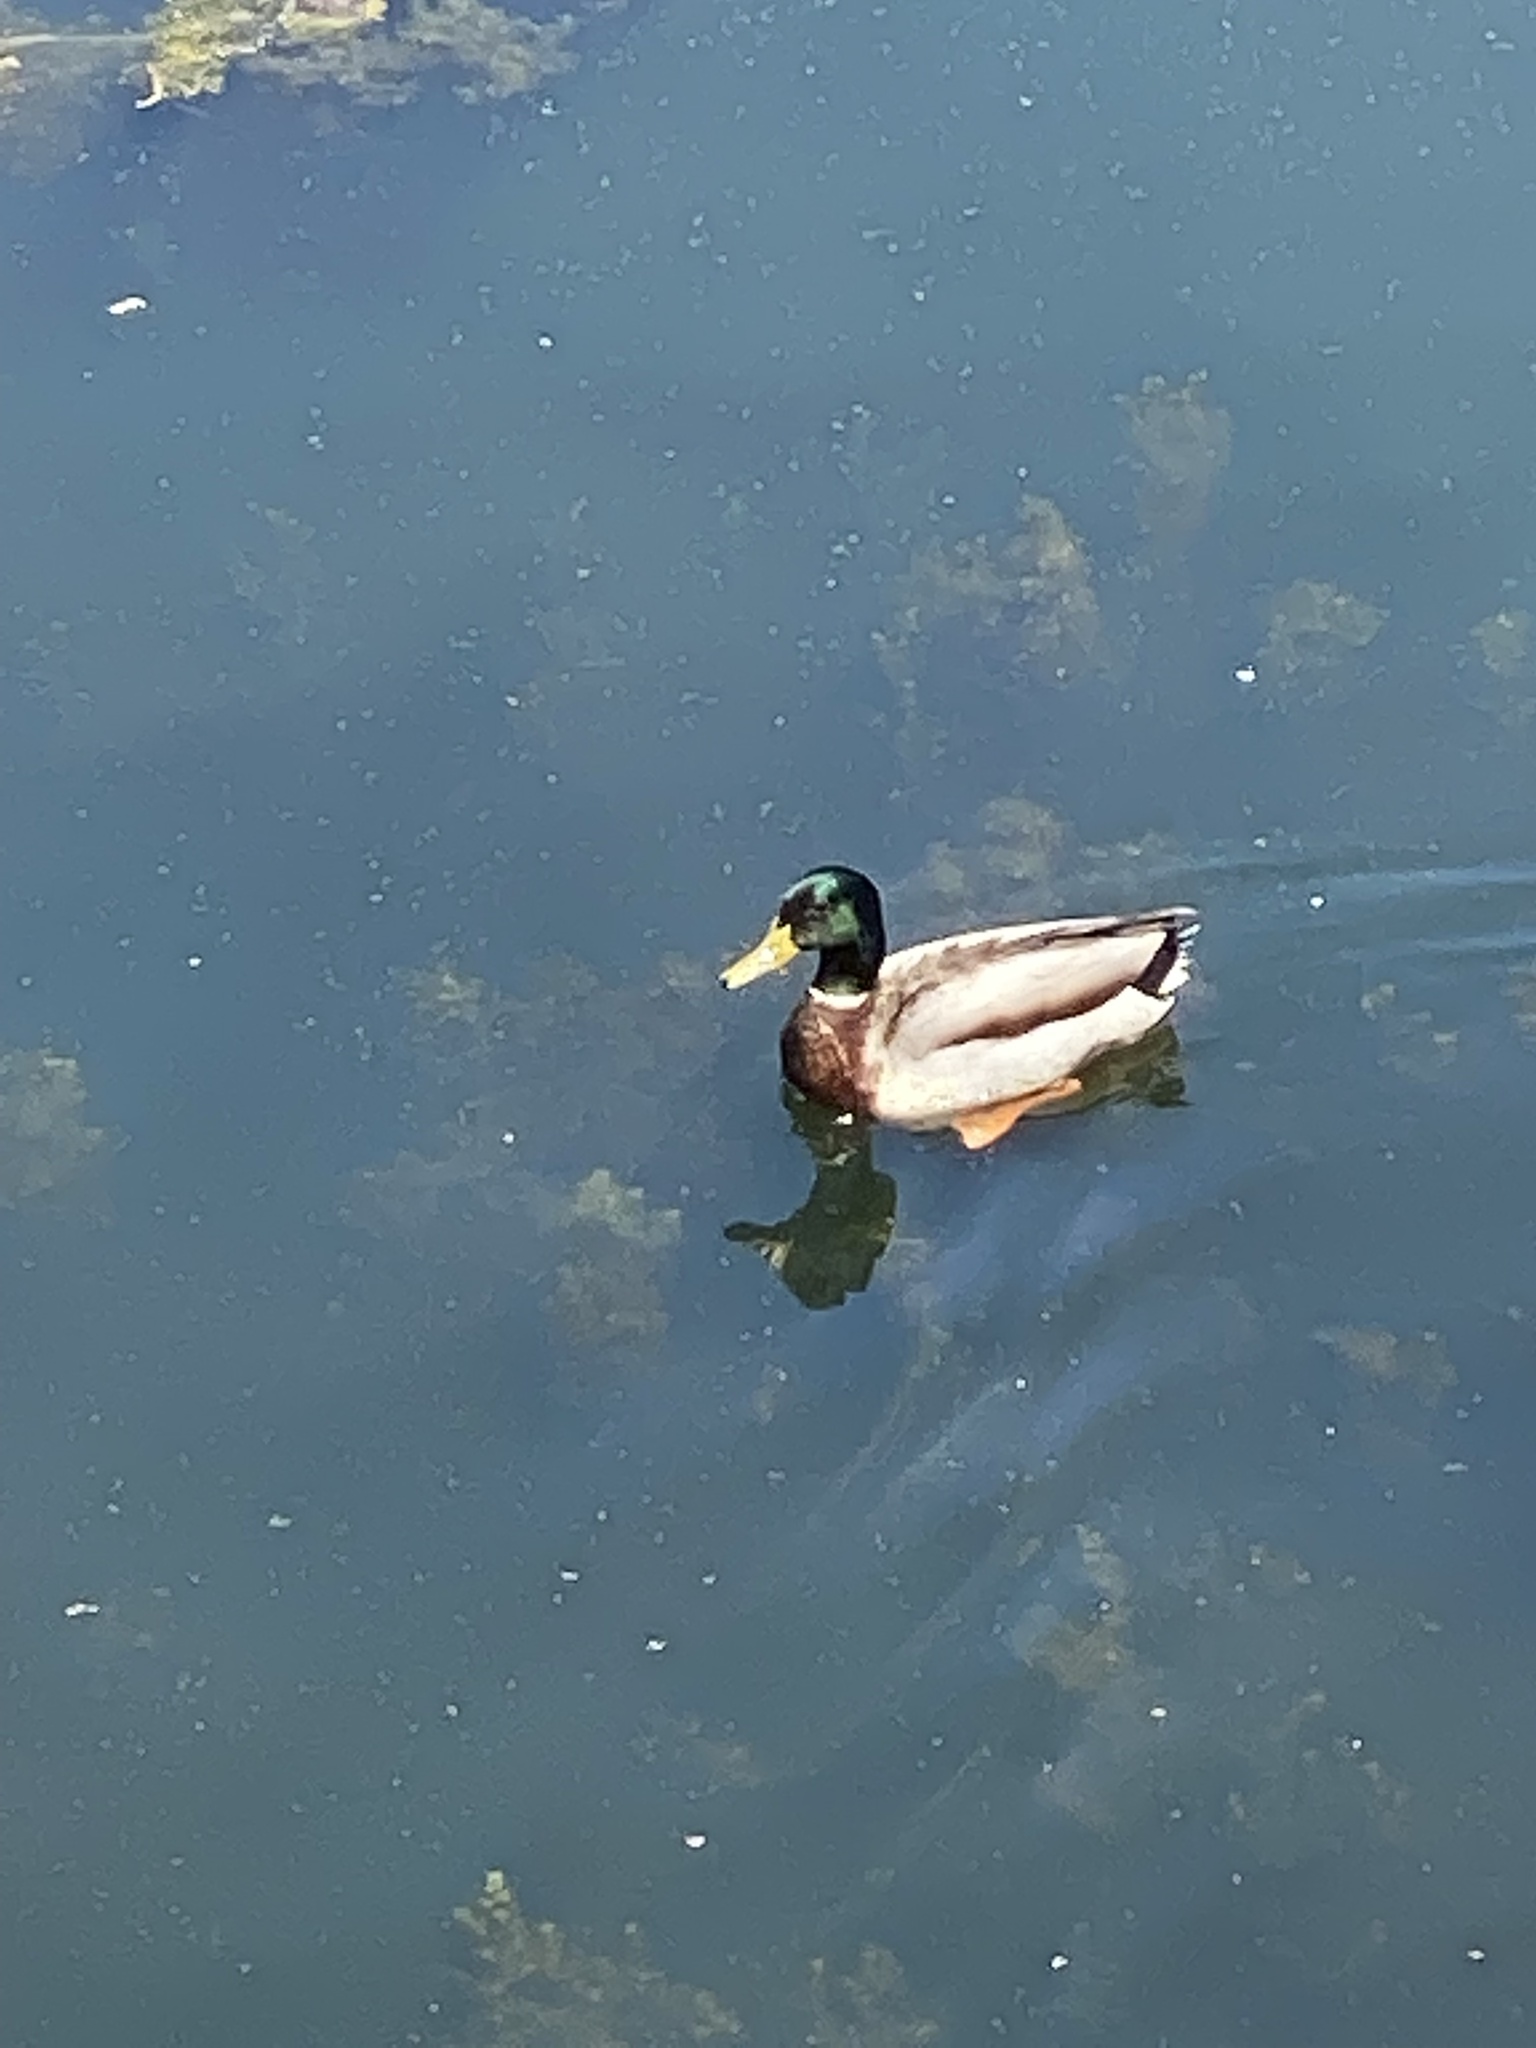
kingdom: Animalia
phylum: Chordata
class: Aves
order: Anseriformes
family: Anatidae
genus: Anas
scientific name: Anas platyrhynchos
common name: Mallard
